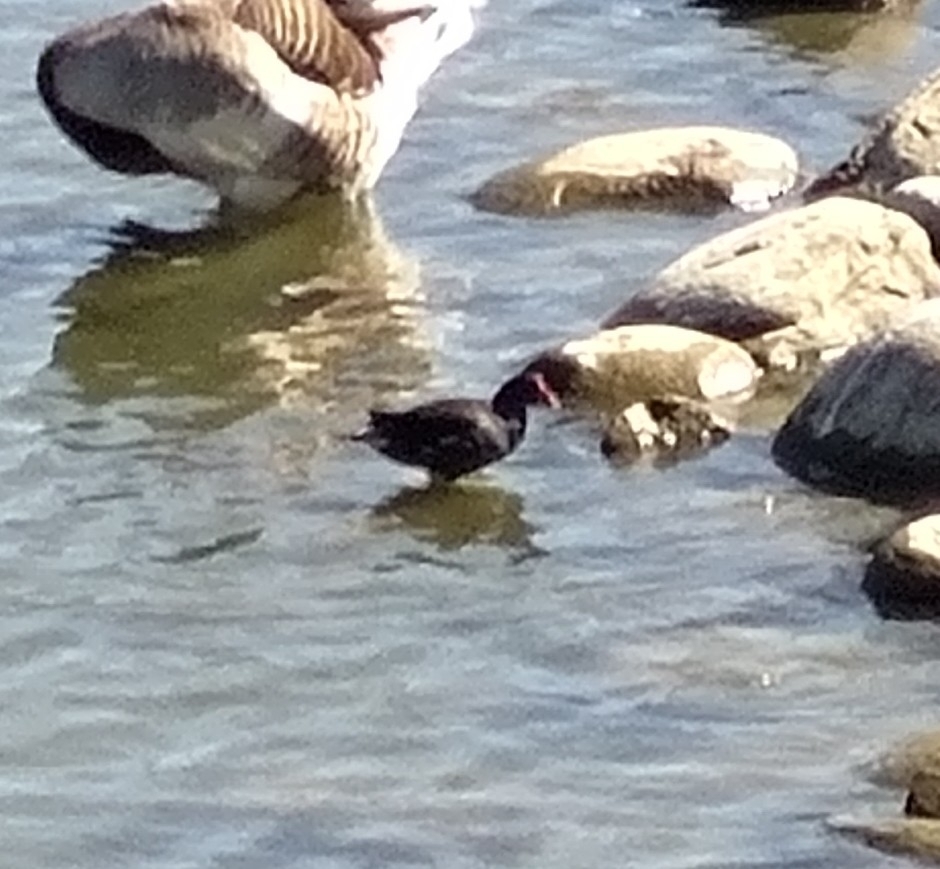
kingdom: Animalia
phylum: Chordata
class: Aves
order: Gruiformes
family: Rallidae
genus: Gallinula
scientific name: Gallinula chloropus
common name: Common moorhen
